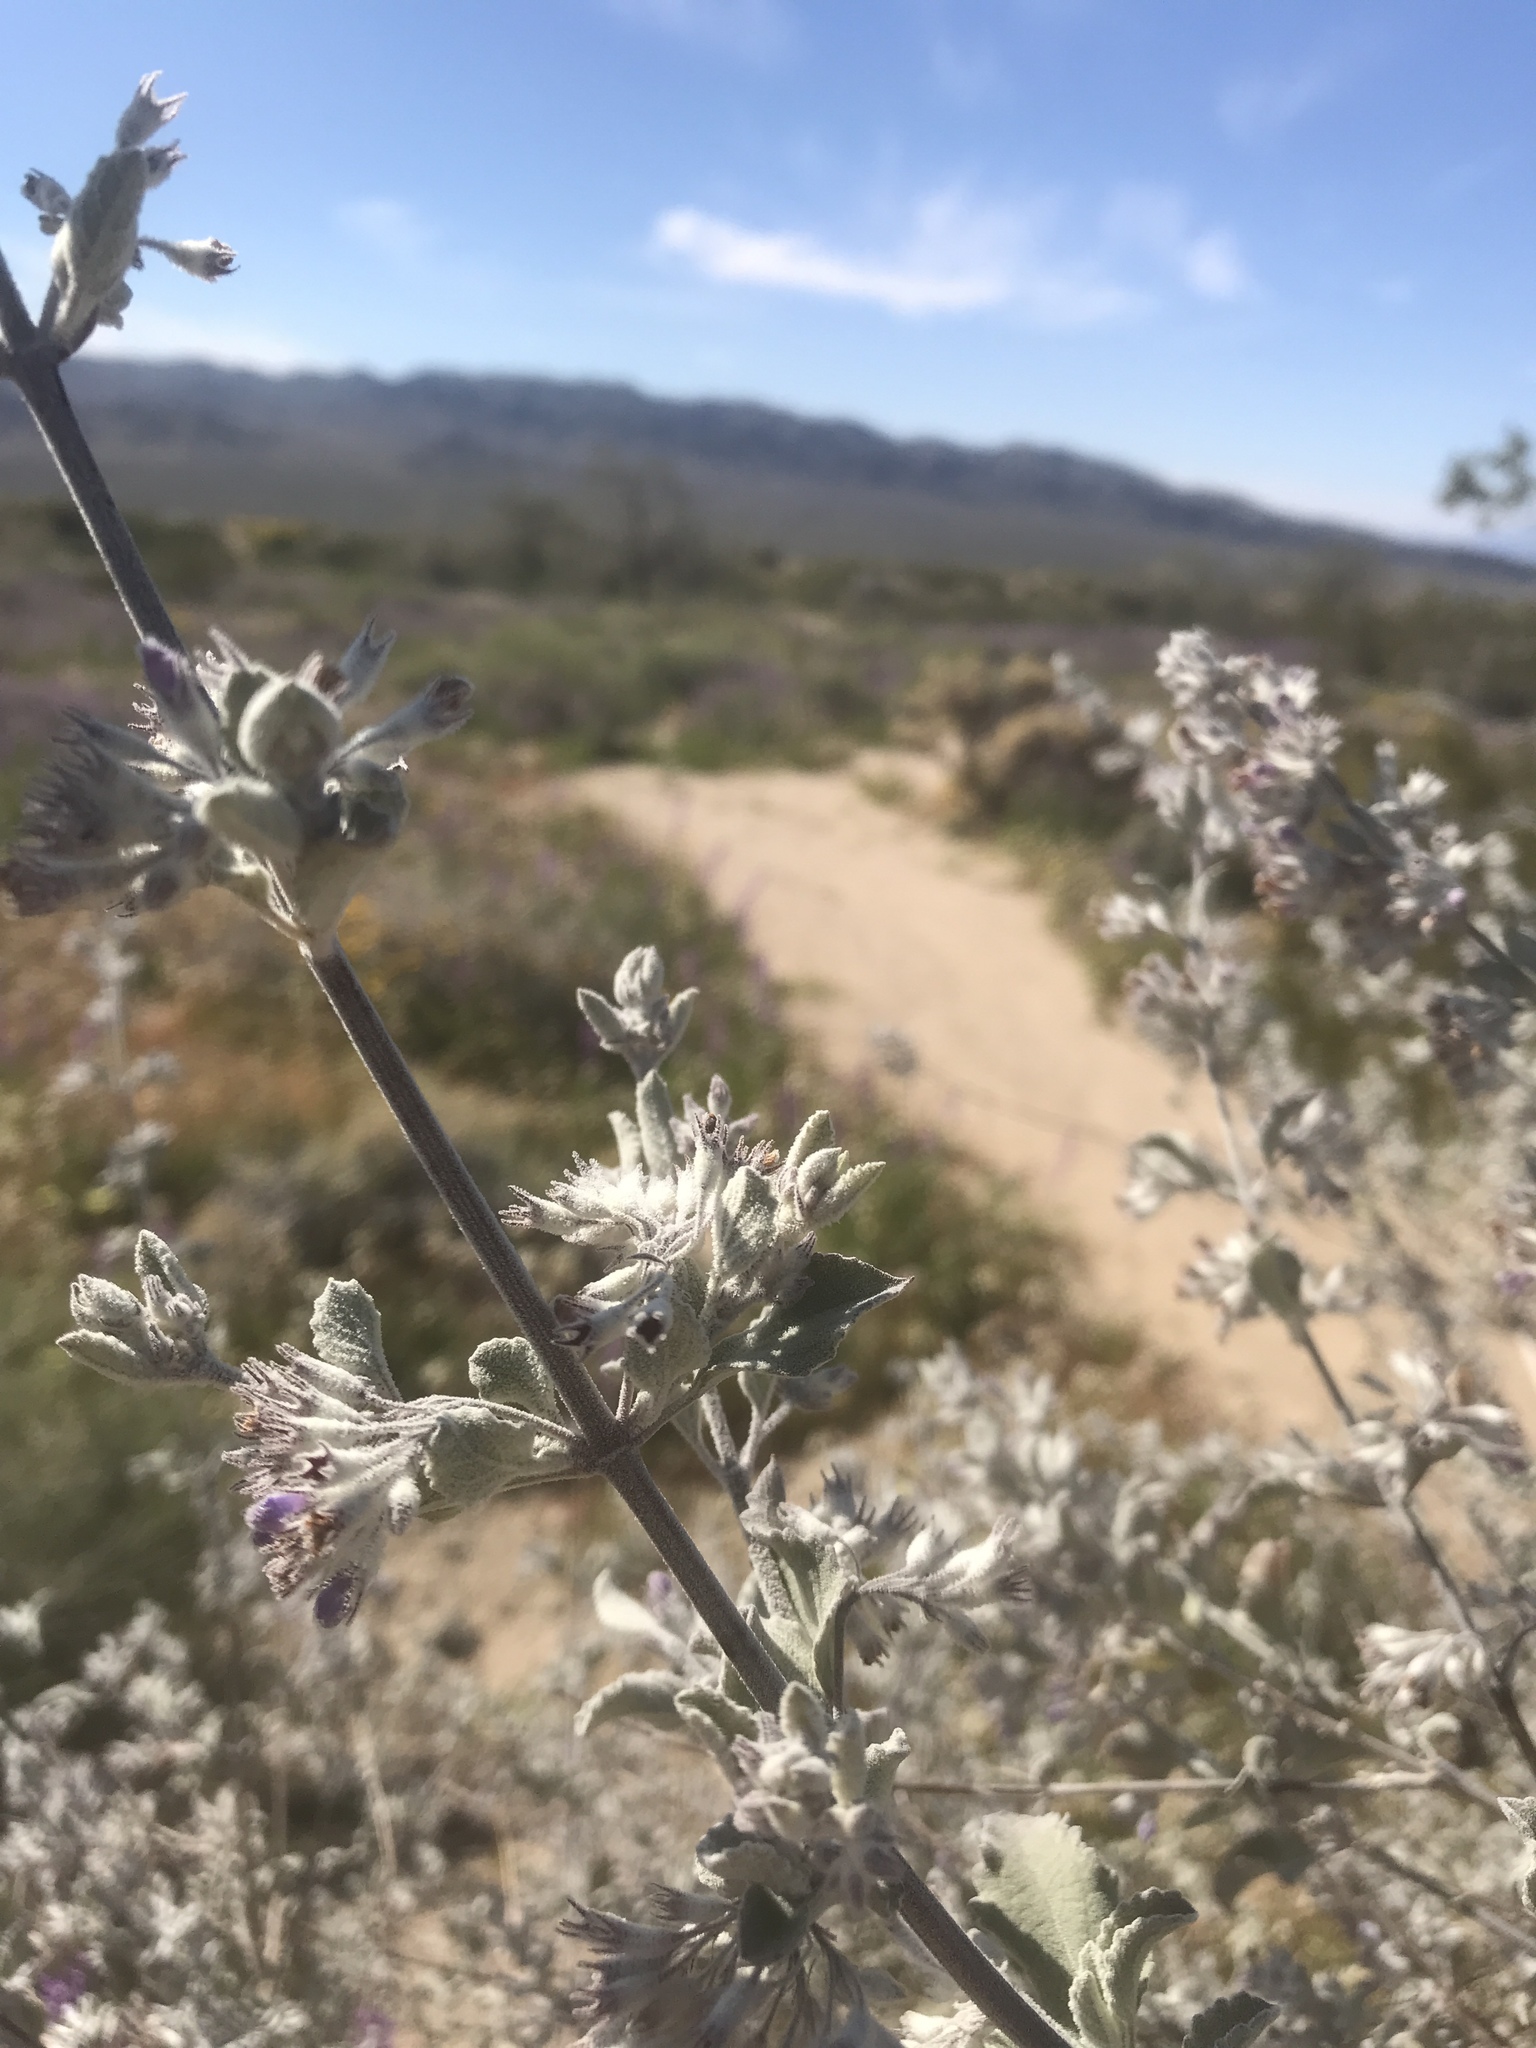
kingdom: Plantae
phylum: Tracheophyta
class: Magnoliopsida
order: Lamiales
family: Lamiaceae
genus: Condea
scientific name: Condea emoryi
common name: Chia
